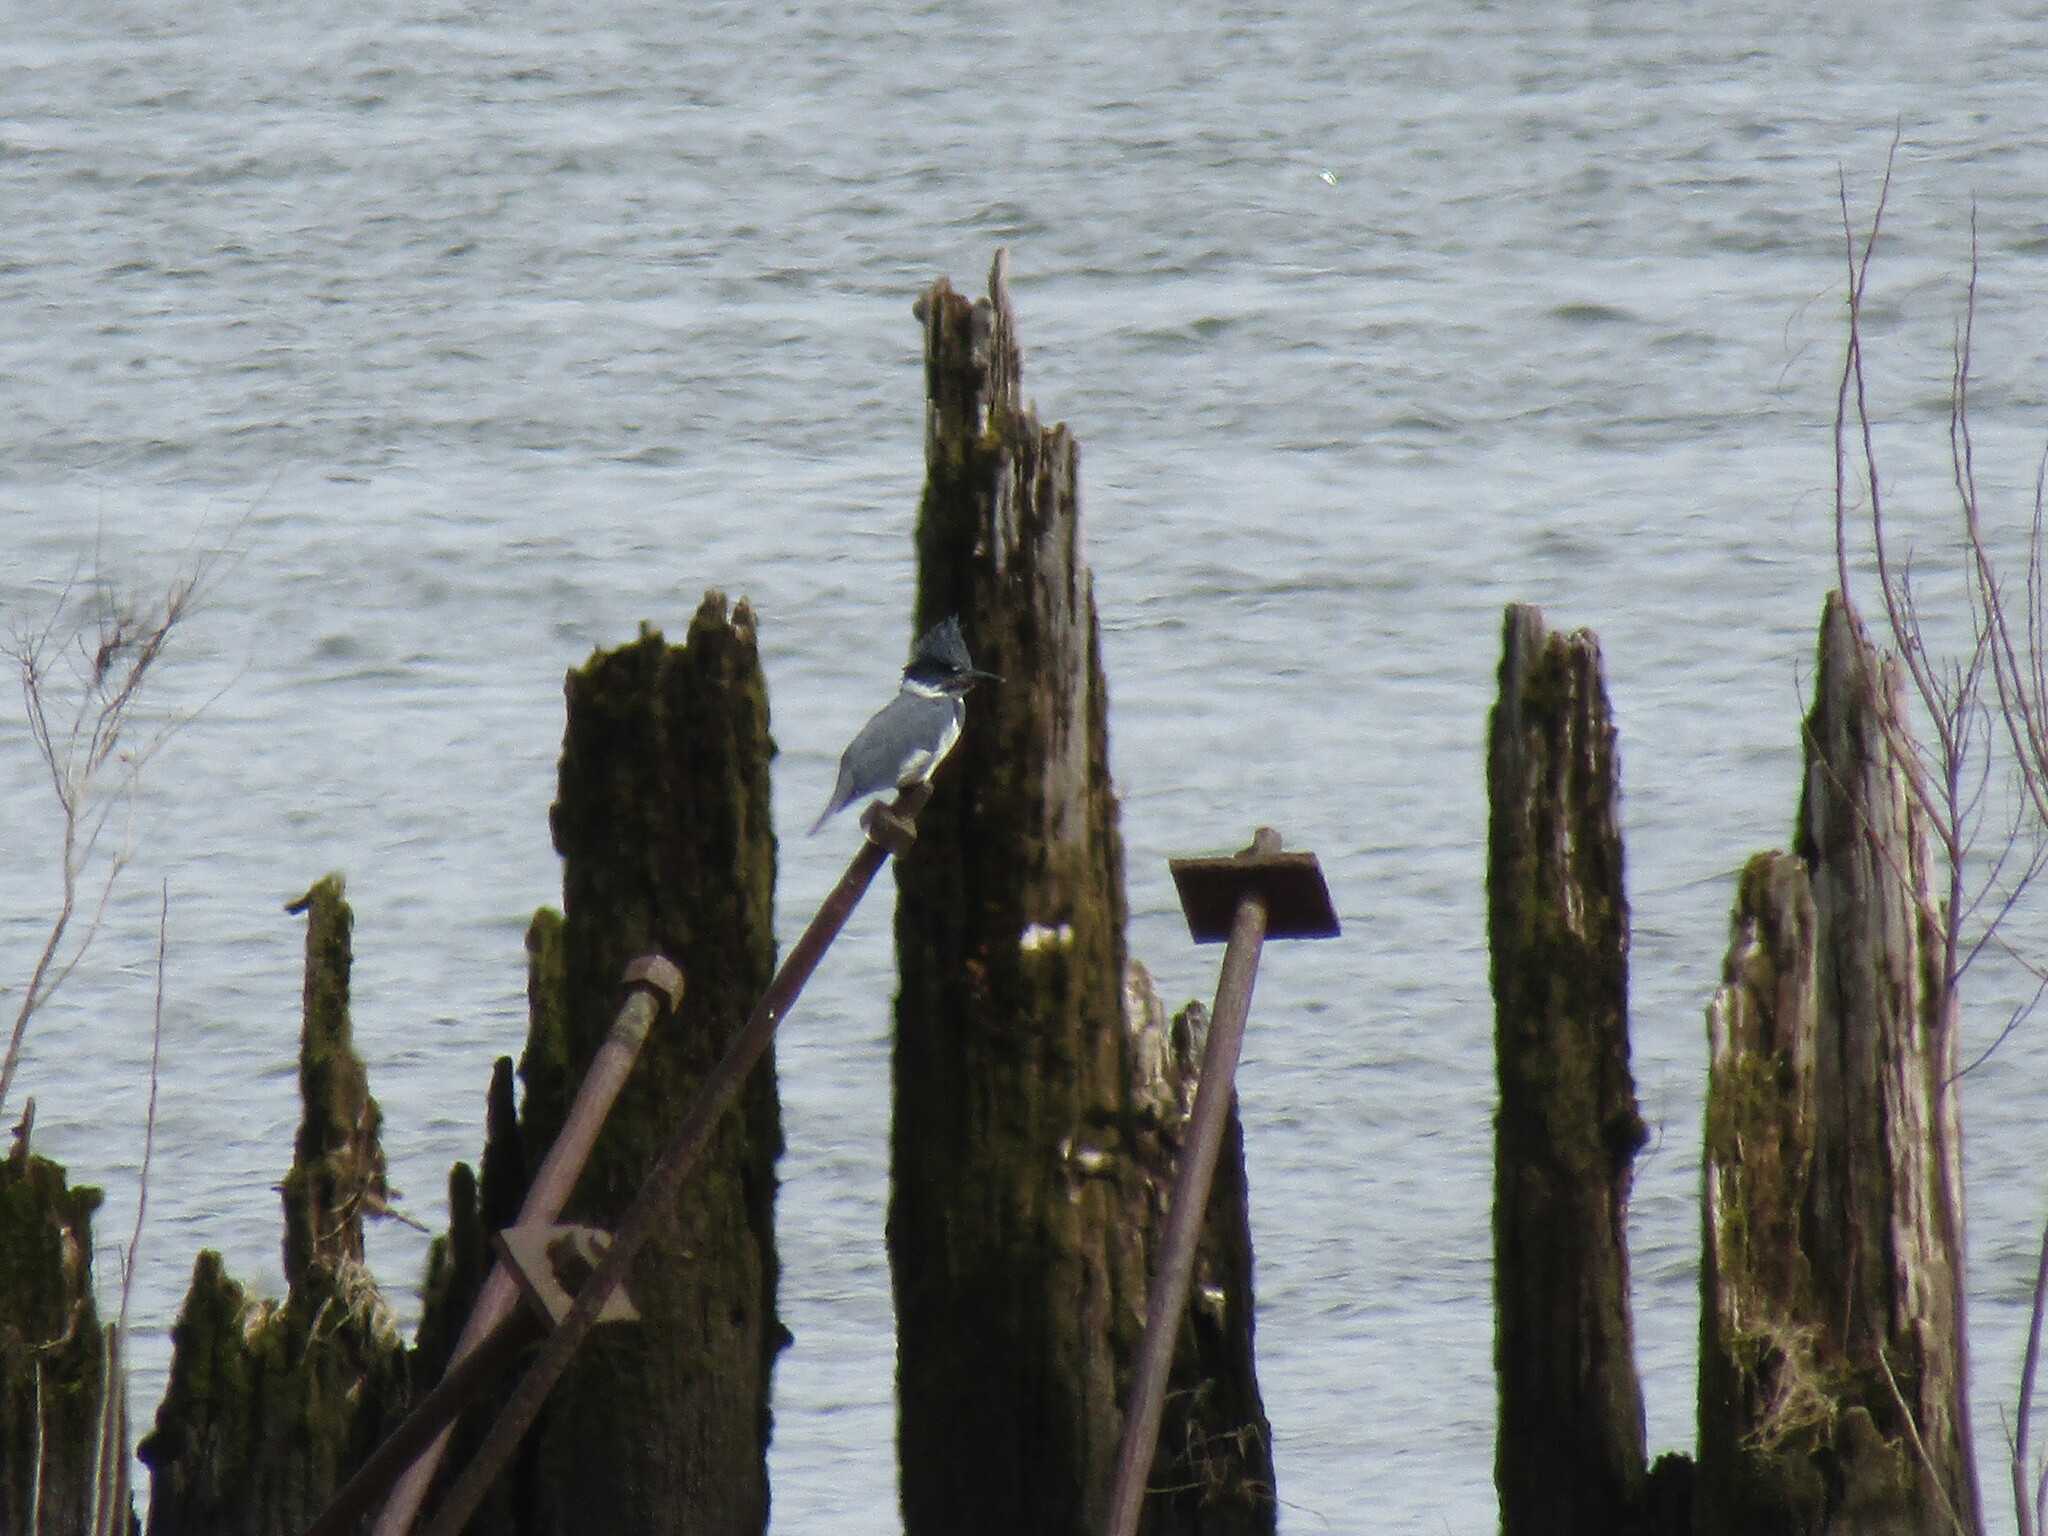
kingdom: Animalia
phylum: Chordata
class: Aves
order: Coraciiformes
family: Alcedinidae
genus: Megaceryle
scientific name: Megaceryle alcyon
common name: Belted kingfisher
